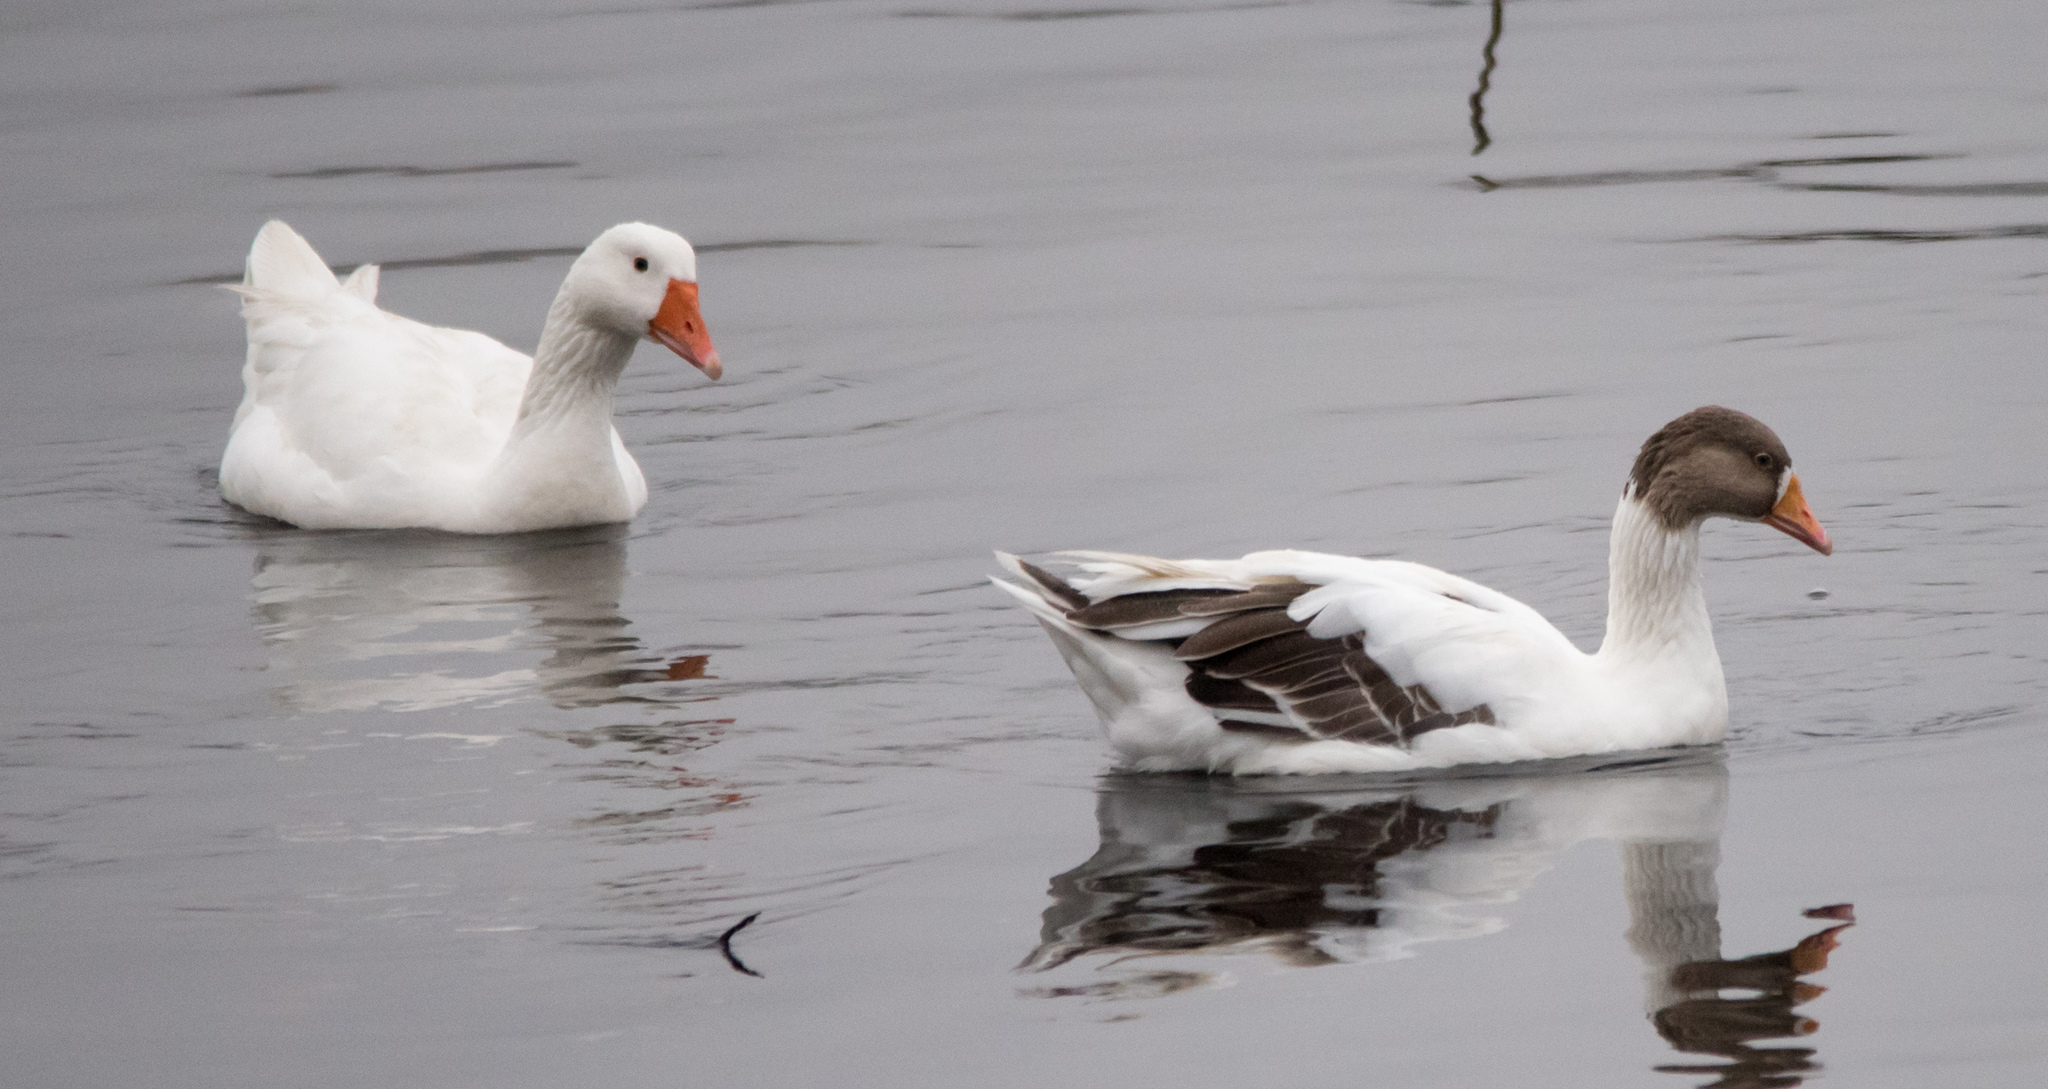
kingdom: Animalia
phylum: Chordata
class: Aves
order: Anseriformes
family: Anatidae
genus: Anser
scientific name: Anser anser
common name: Greylag goose
